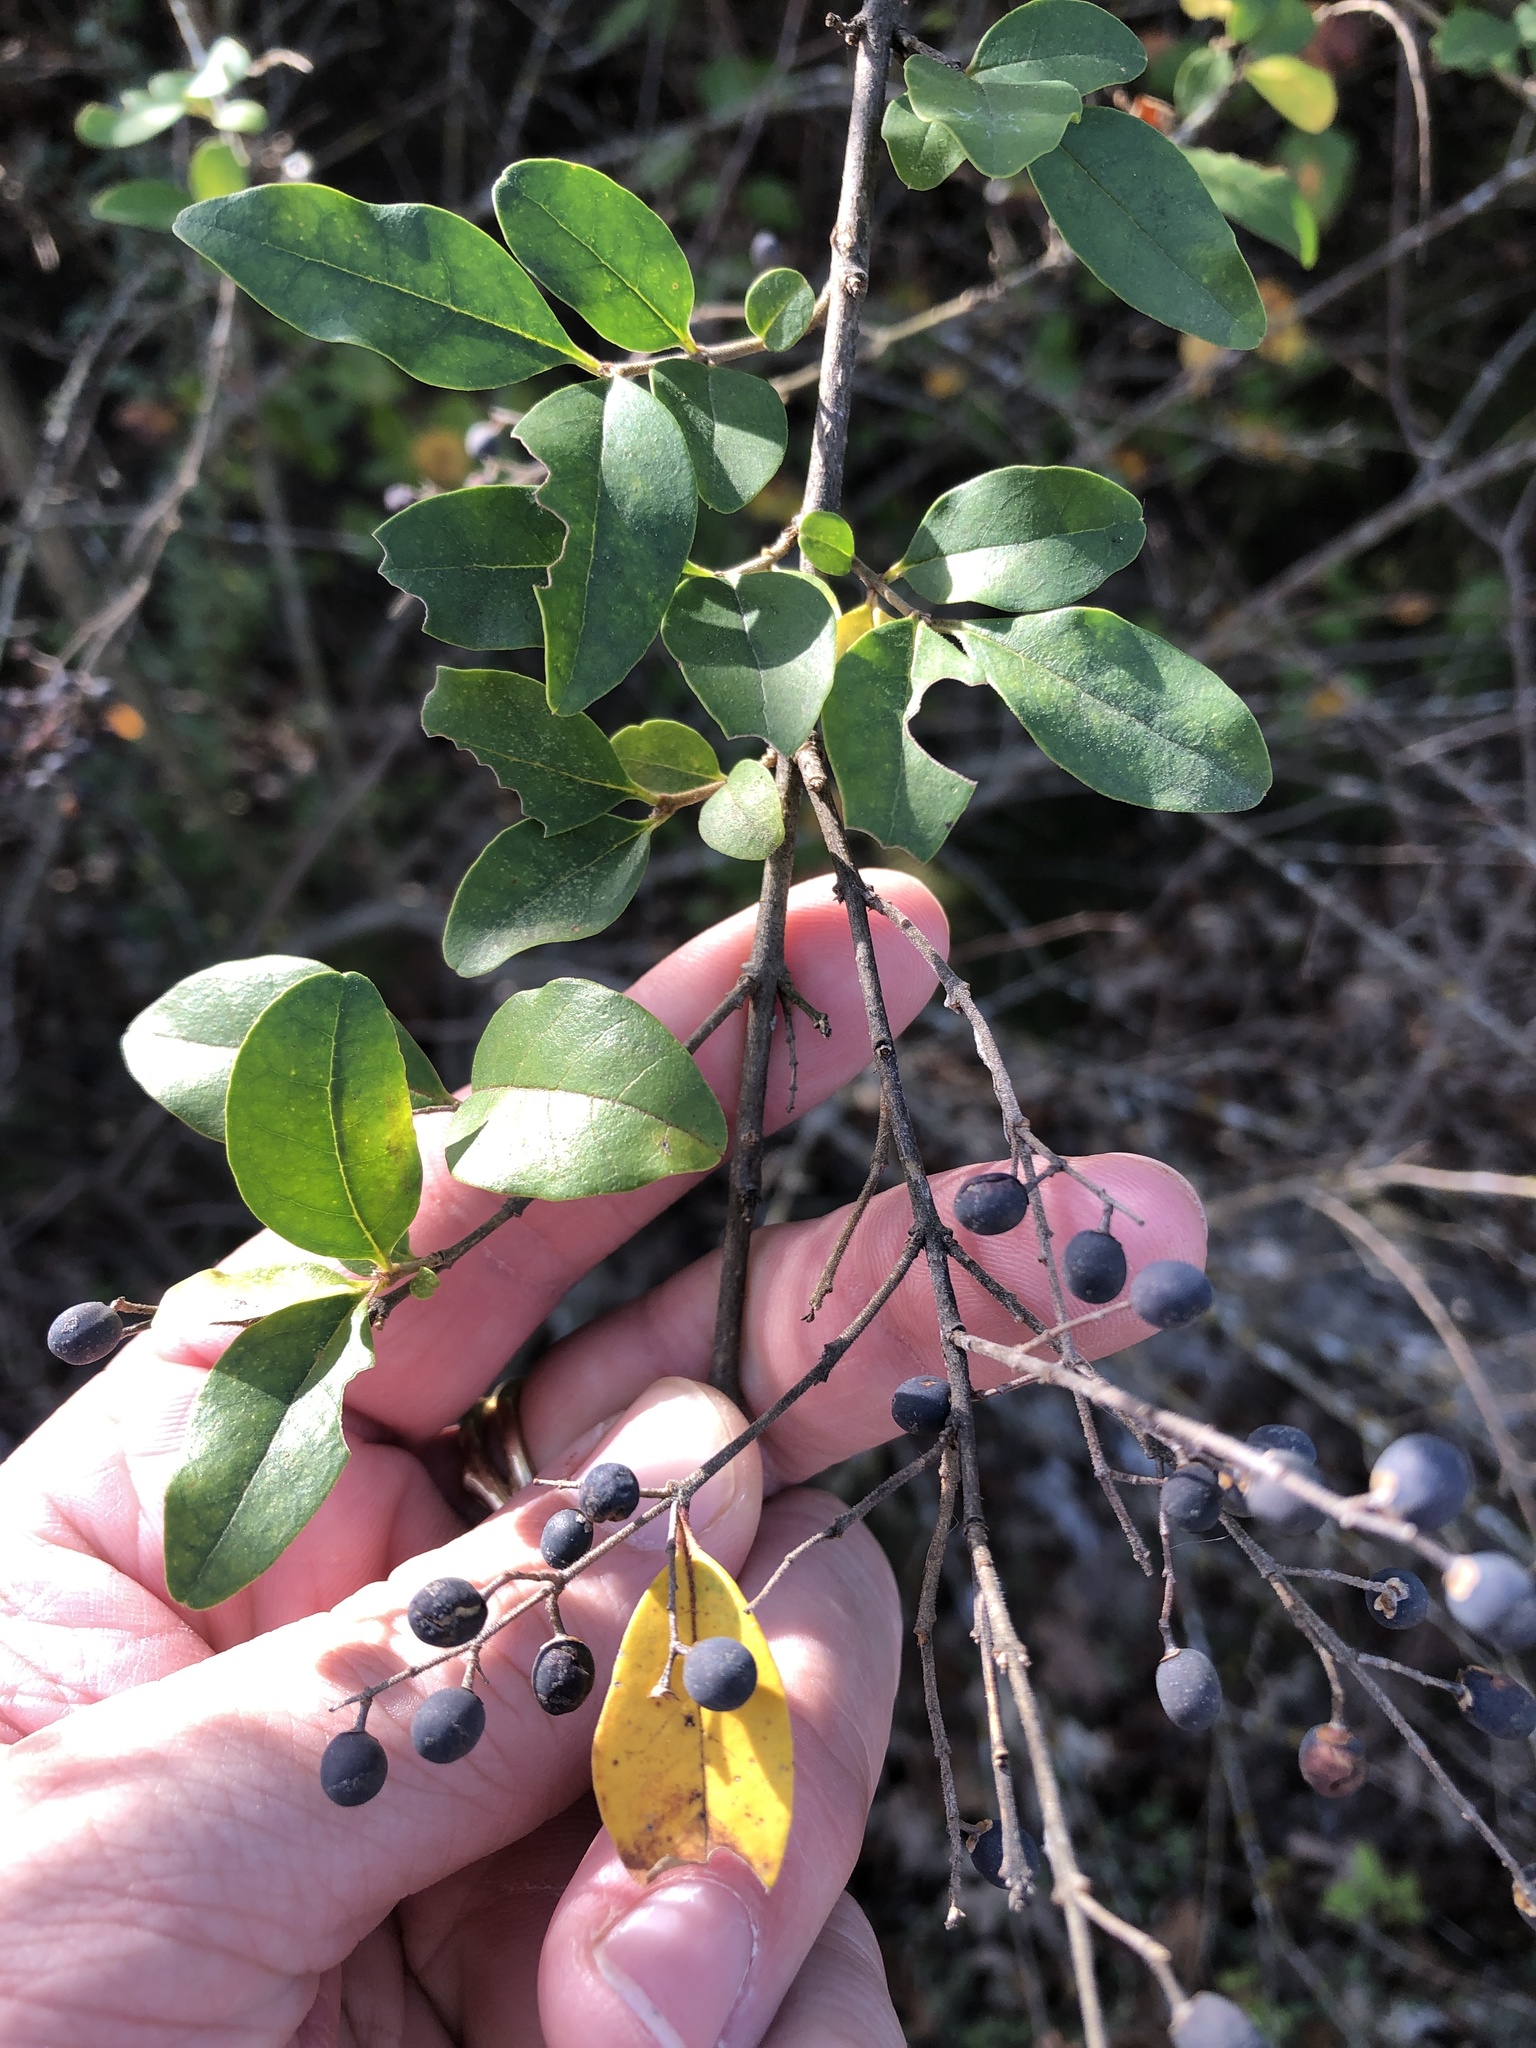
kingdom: Plantae
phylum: Tracheophyta
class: Magnoliopsida
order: Lamiales
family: Oleaceae
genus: Ligustrum
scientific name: Ligustrum sinense
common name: Chinese privet
